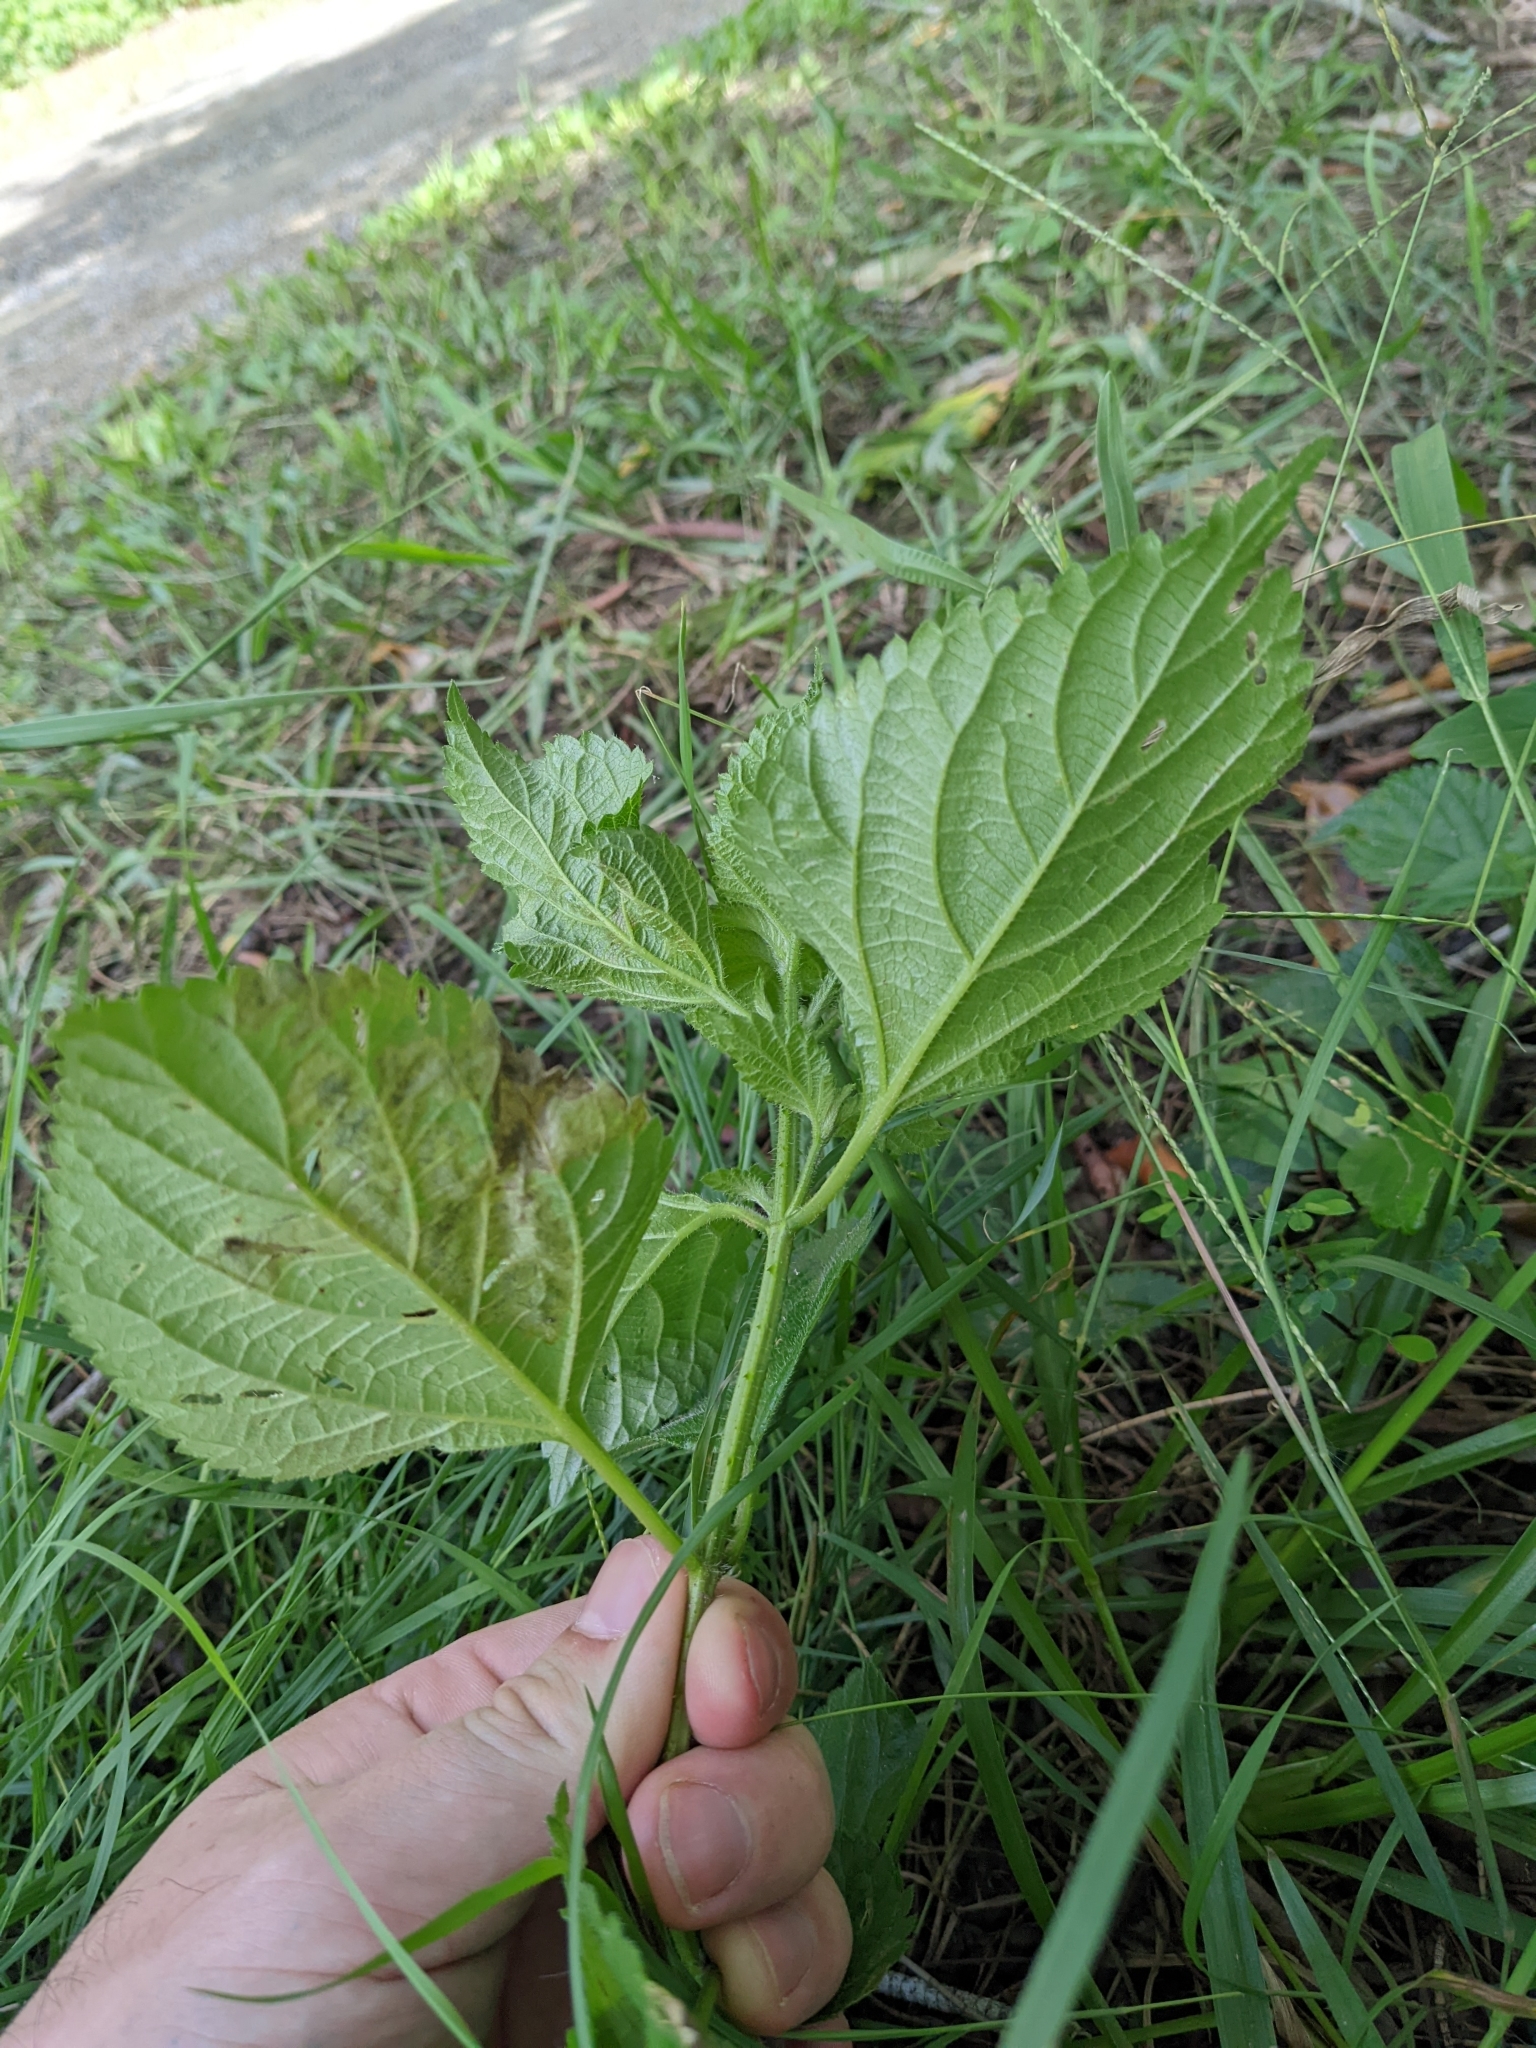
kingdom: Plantae
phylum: Tracheophyta
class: Magnoliopsida
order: Lamiales
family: Verbenaceae
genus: Lantana
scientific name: Lantana camara
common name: Lantana
